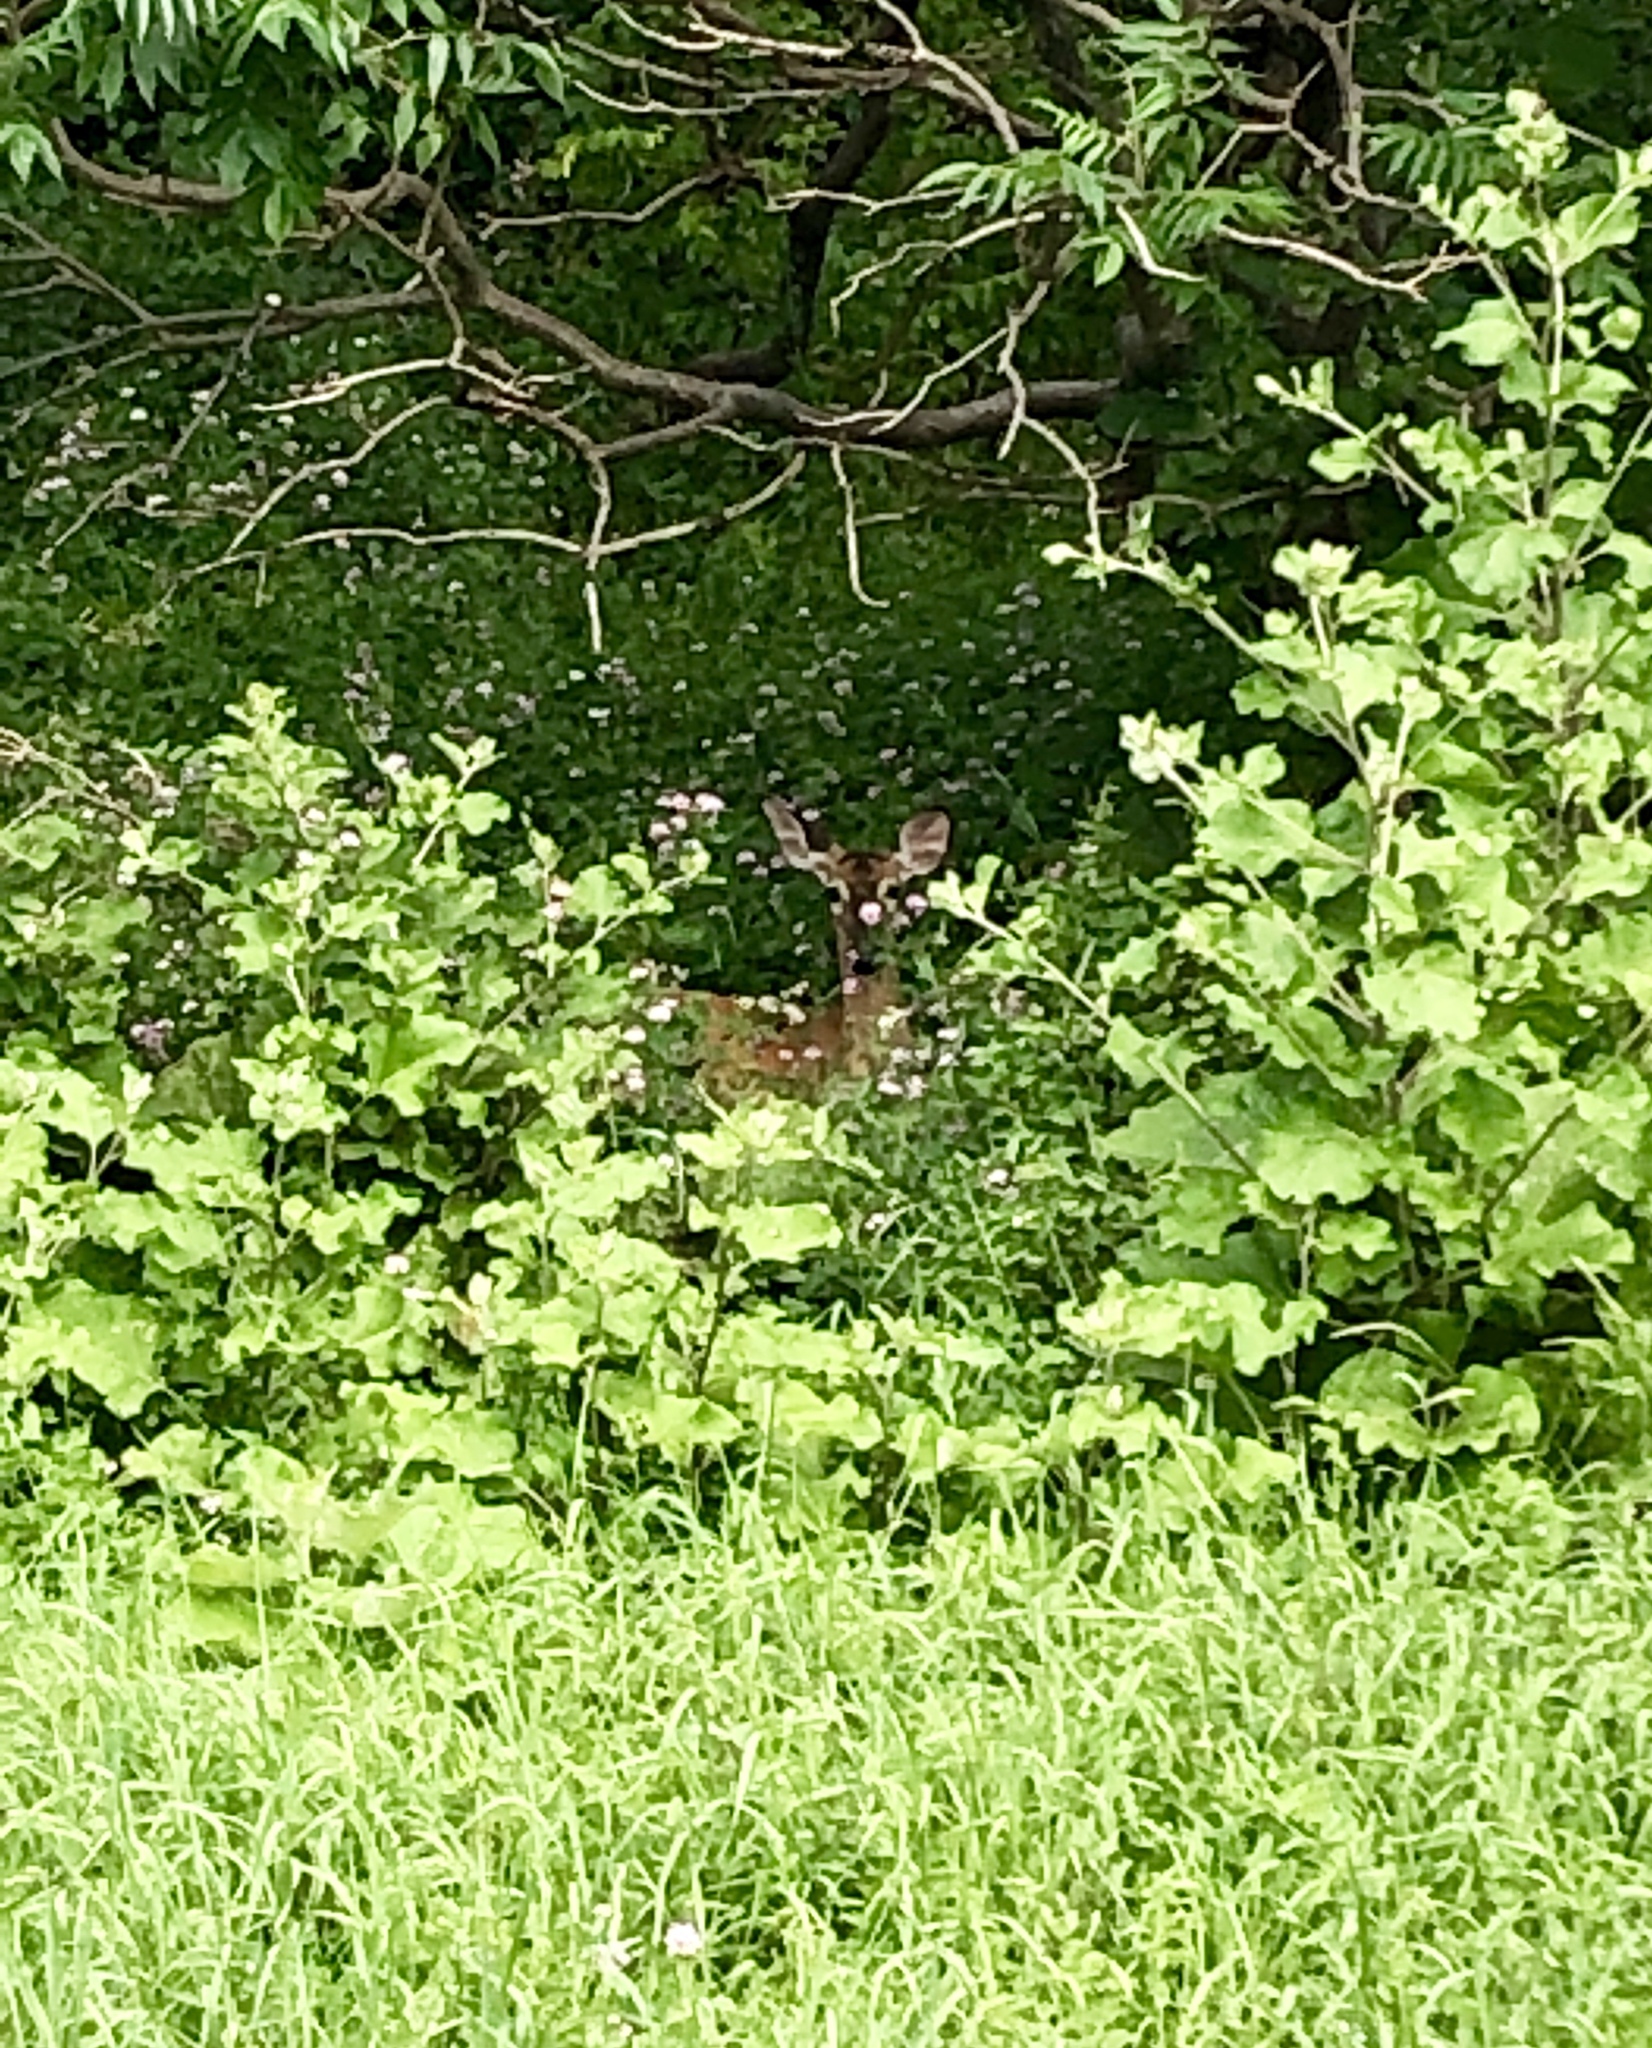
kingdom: Animalia
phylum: Chordata
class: Mammalia
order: Artiodactyla
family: Cervidae
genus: Odocoileus
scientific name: Odocoileus virginianus
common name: White-tailed deer
